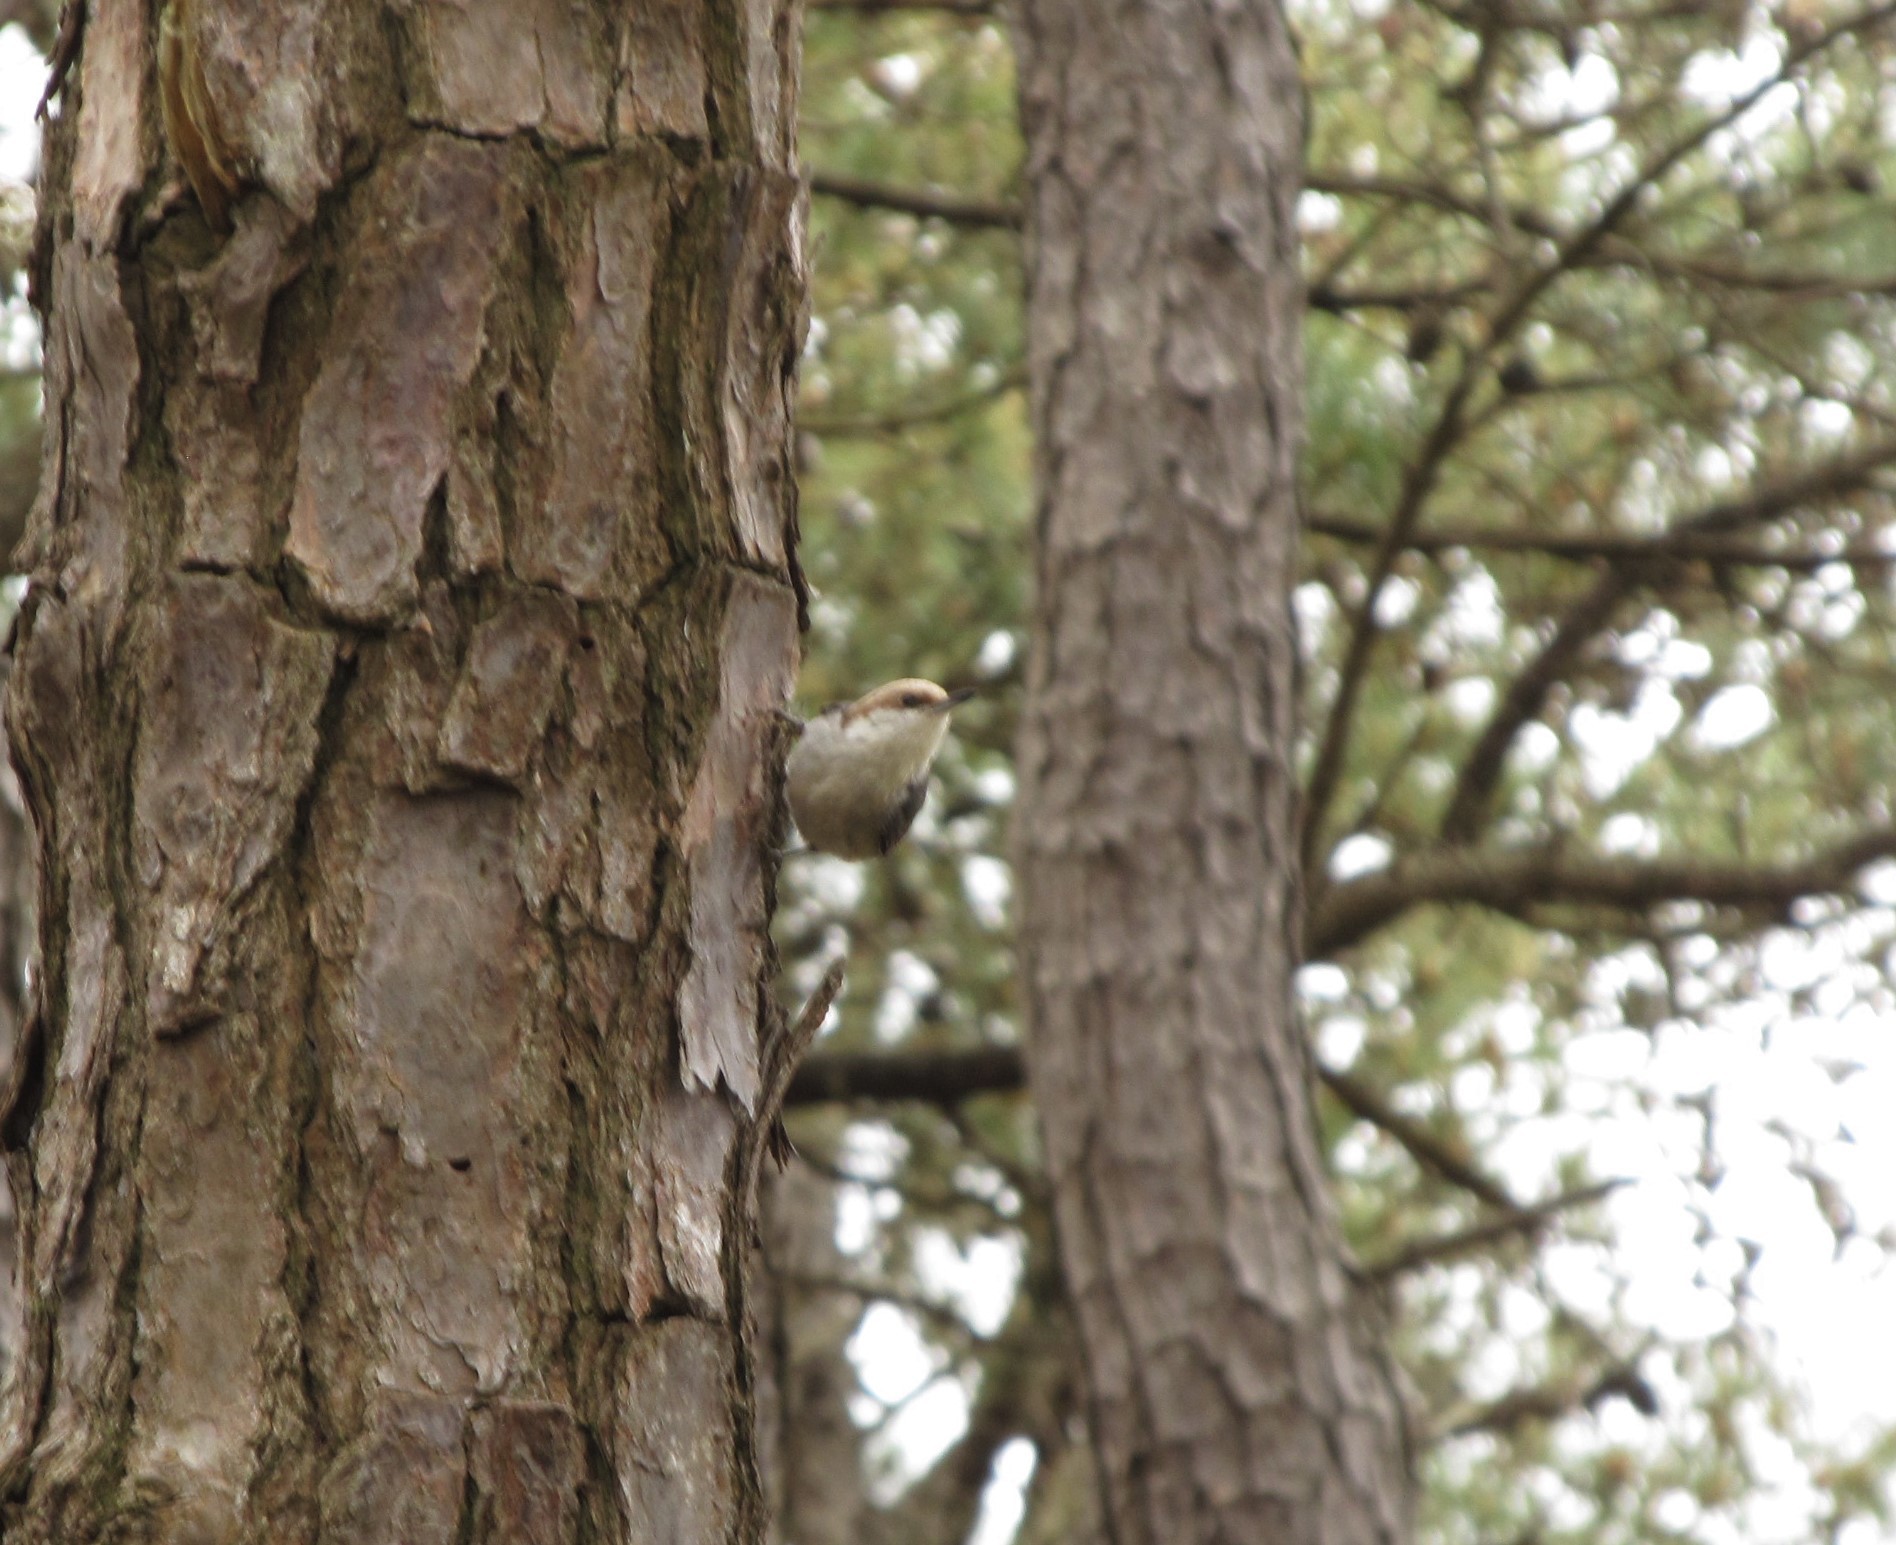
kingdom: Animalia
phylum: Chordata
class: Aves
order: Passeriformes
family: Sittidae
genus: Sitta
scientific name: Sitta pusilla
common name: Brown-headed nuthatch
